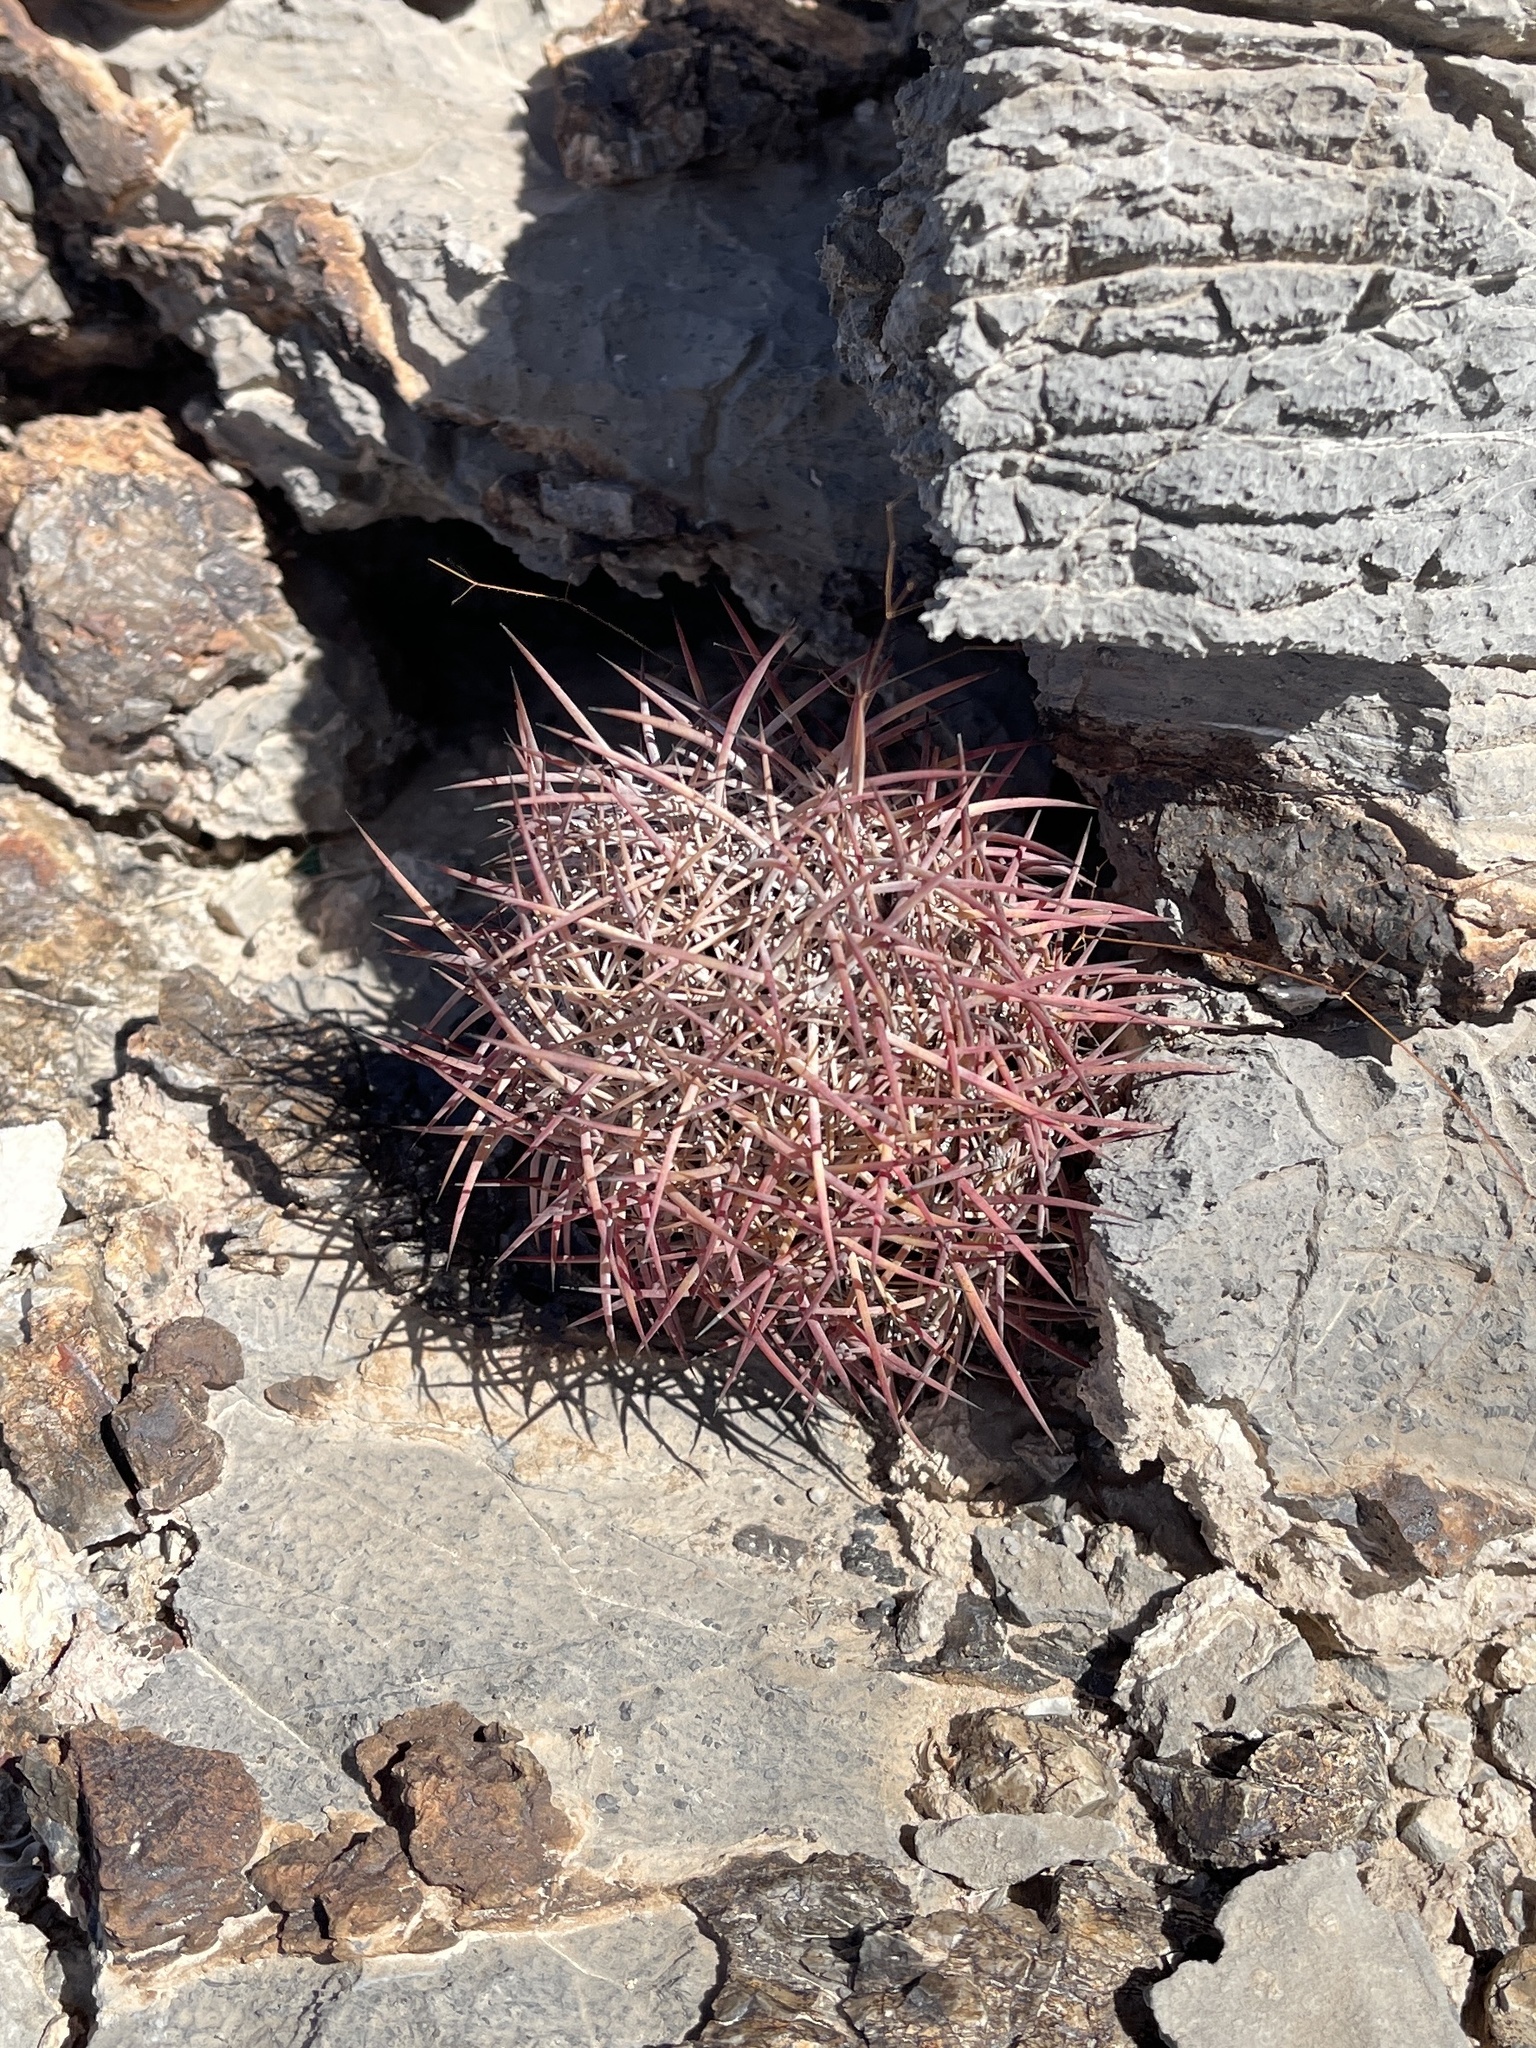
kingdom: Plantae
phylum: Tracheophyta
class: Magnoliopsida
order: Caryophyllales
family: Cactaceae
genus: Sclerocactus
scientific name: Sclerocactus johnsonii
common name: Eight-spine fishhook cactus
